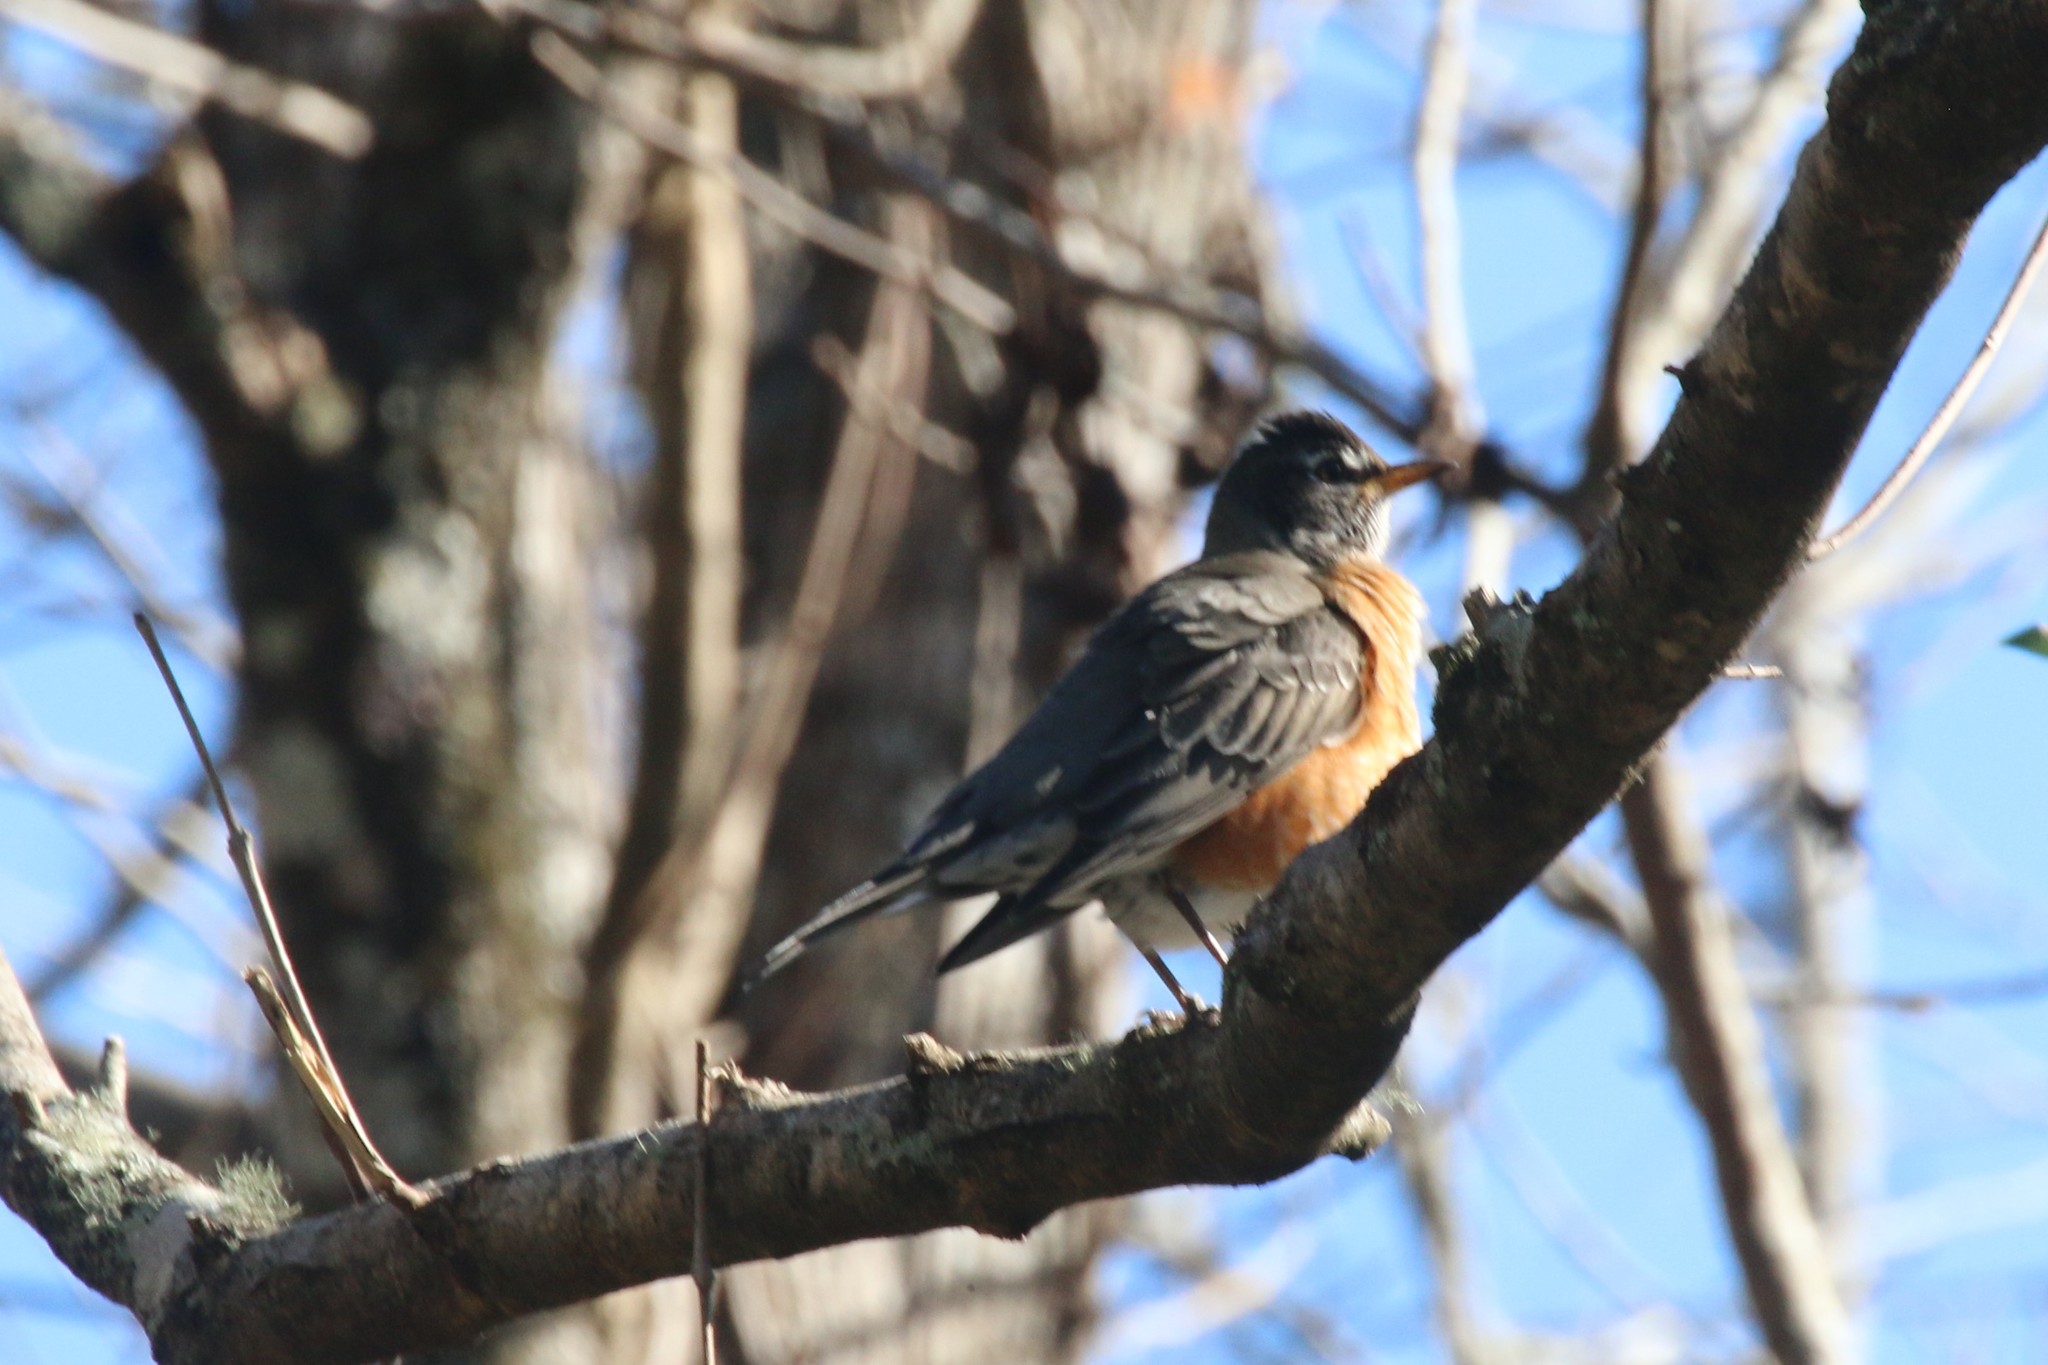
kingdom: Animalia
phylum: Chordata
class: Aves
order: Passeriformes
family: Turdidae
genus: Turdus
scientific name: Turdus migratorius
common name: American robin
